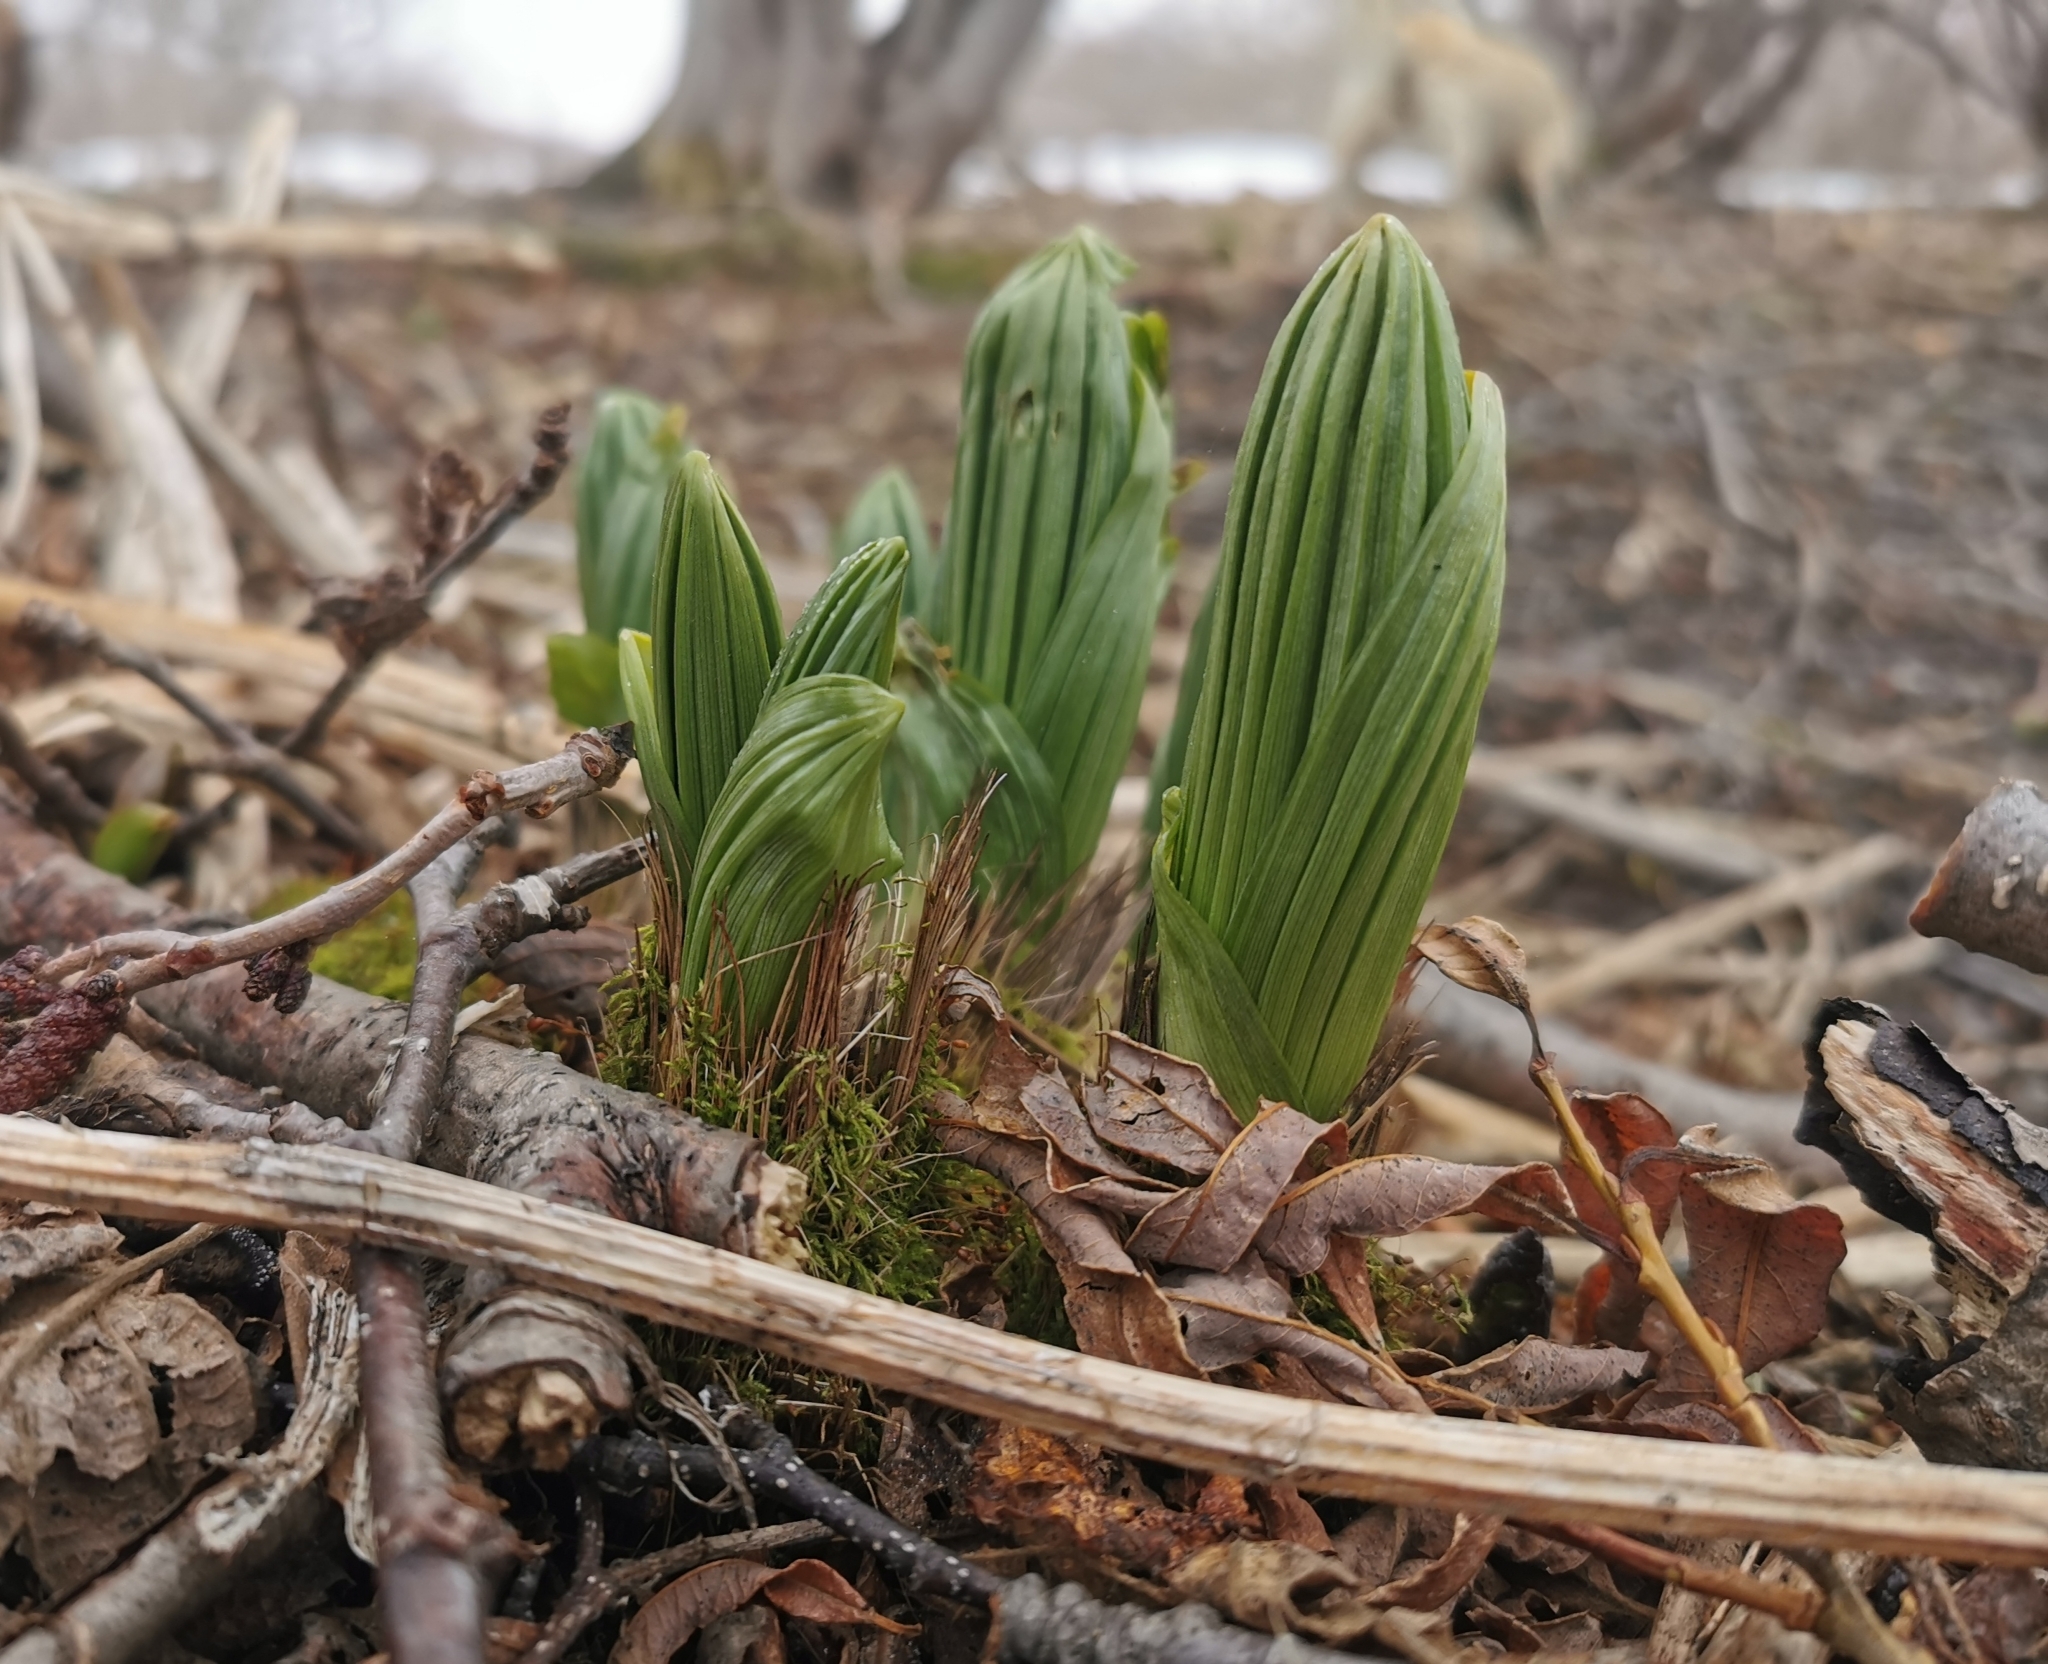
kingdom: Plantae
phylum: Tracheophyta
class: Liliopsida
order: Liliales
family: Melanthiaceae
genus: Veratrum
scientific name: Veratrum oxysepalum
